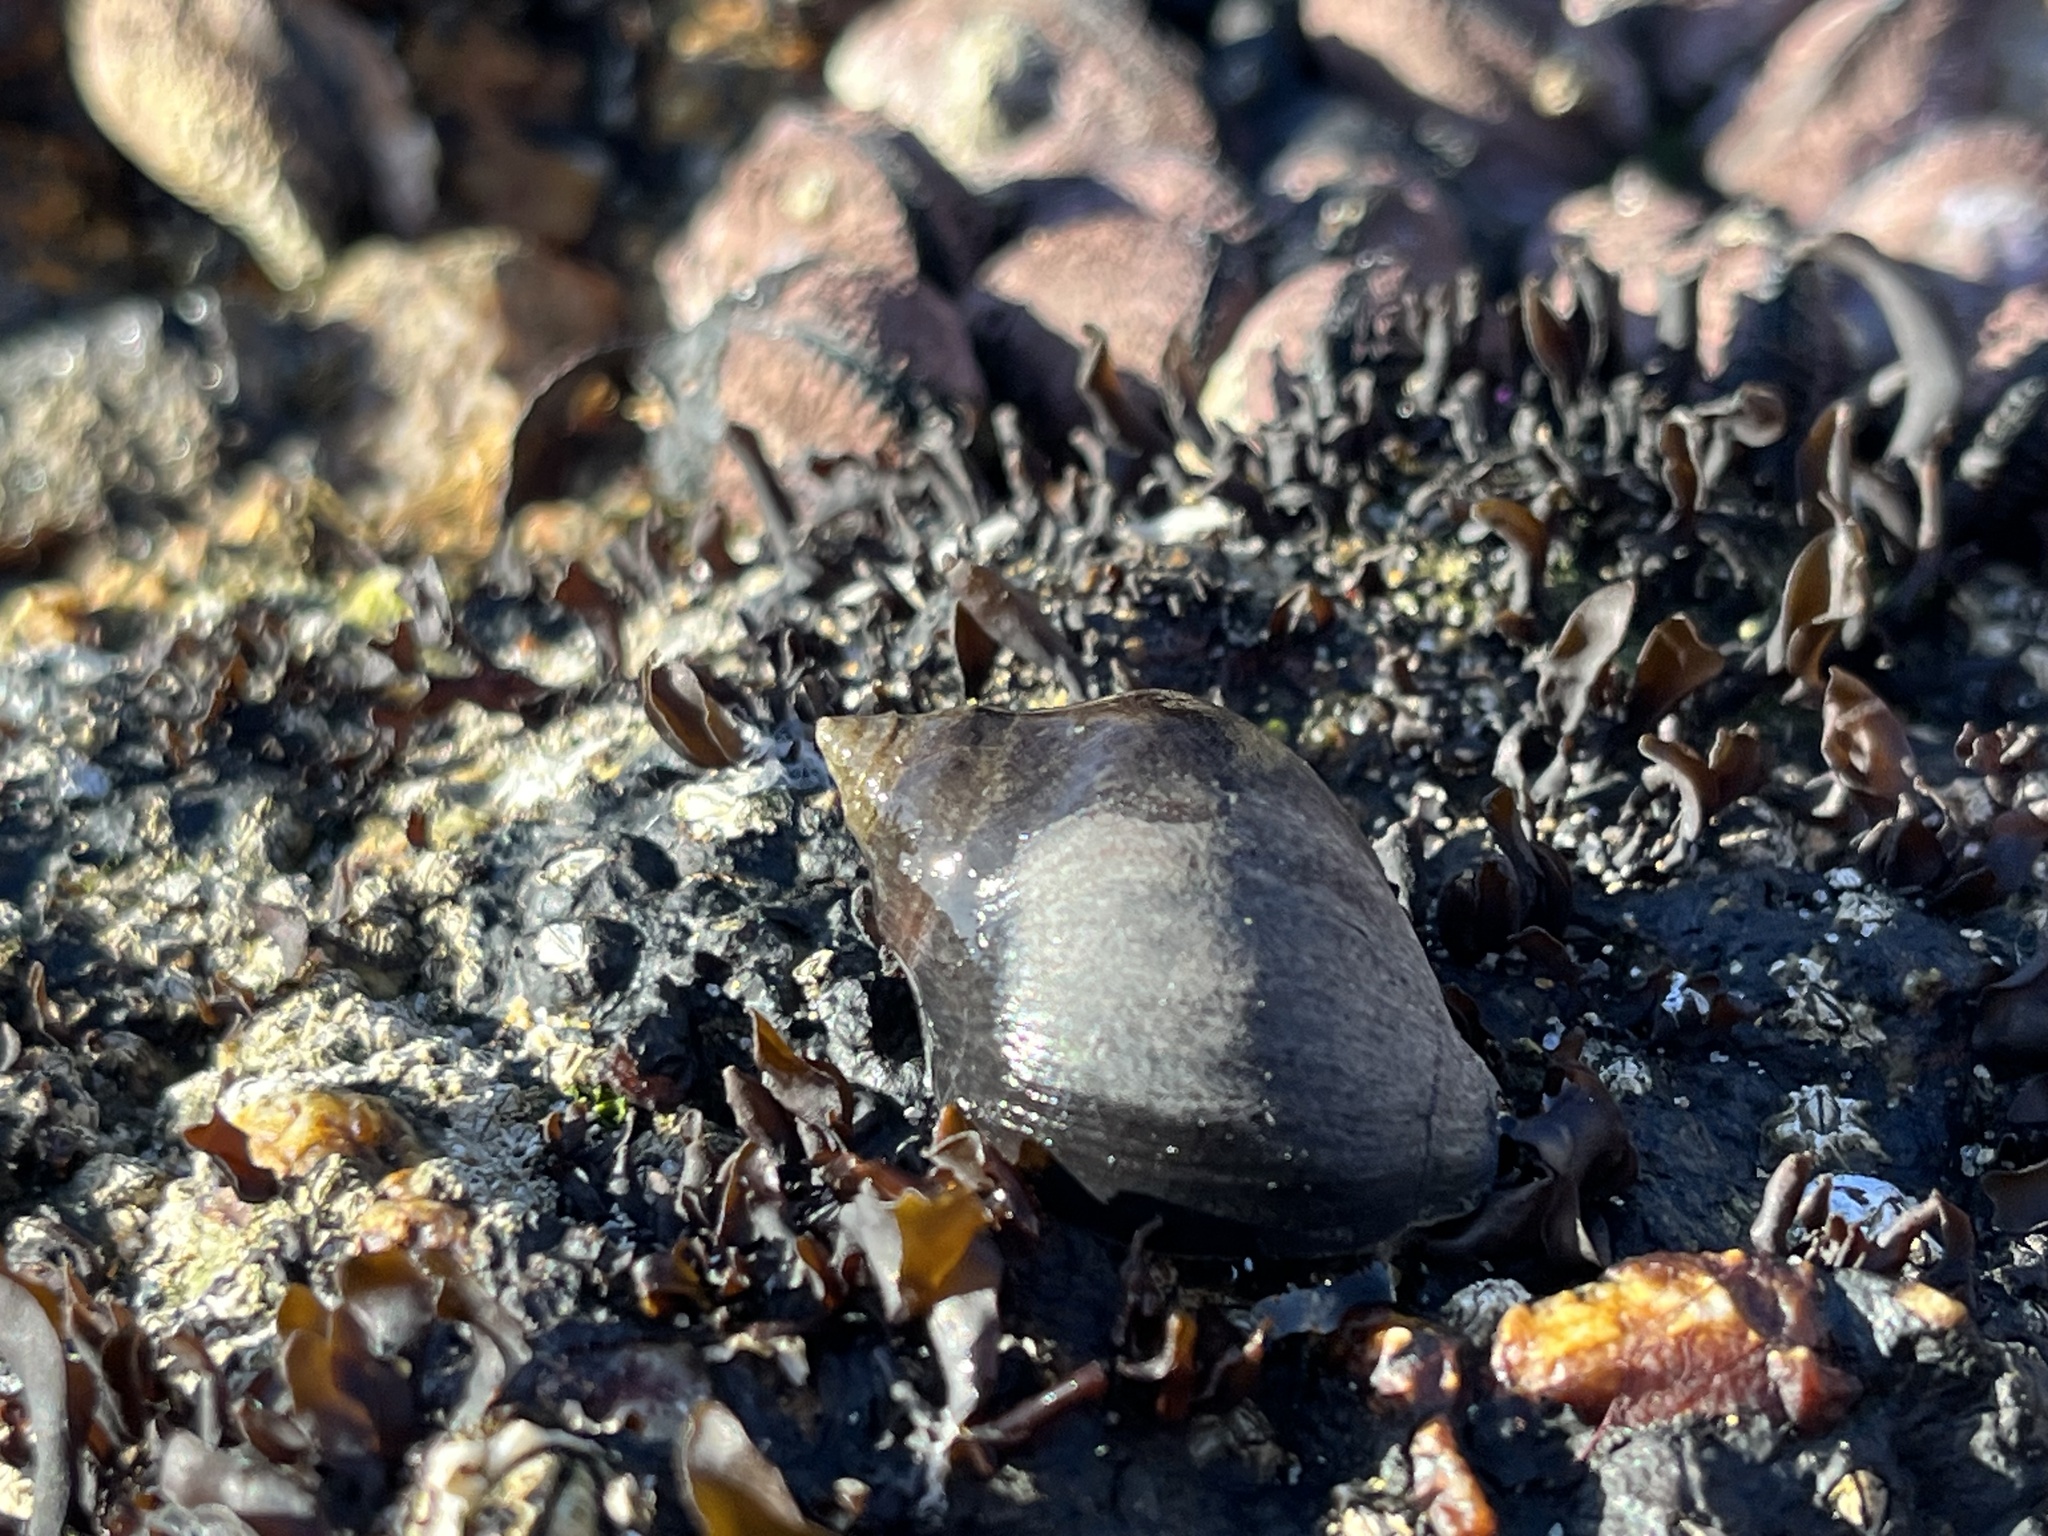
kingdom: Animalia
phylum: Mollusca
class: Gastropoda
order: Neogastropoda
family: Muricidae
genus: Acanthina
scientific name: Acanthina monodon
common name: One-toothed thais
